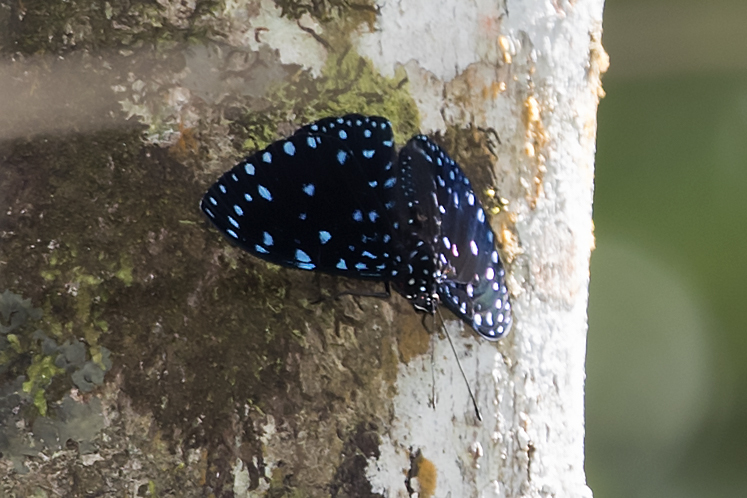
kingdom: Animalia
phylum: Arthropoda
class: Insecta
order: Lepidoptera
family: Nymphalidae
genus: Hamadryas
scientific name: Hamadryas laodamia
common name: Starry night cracker
